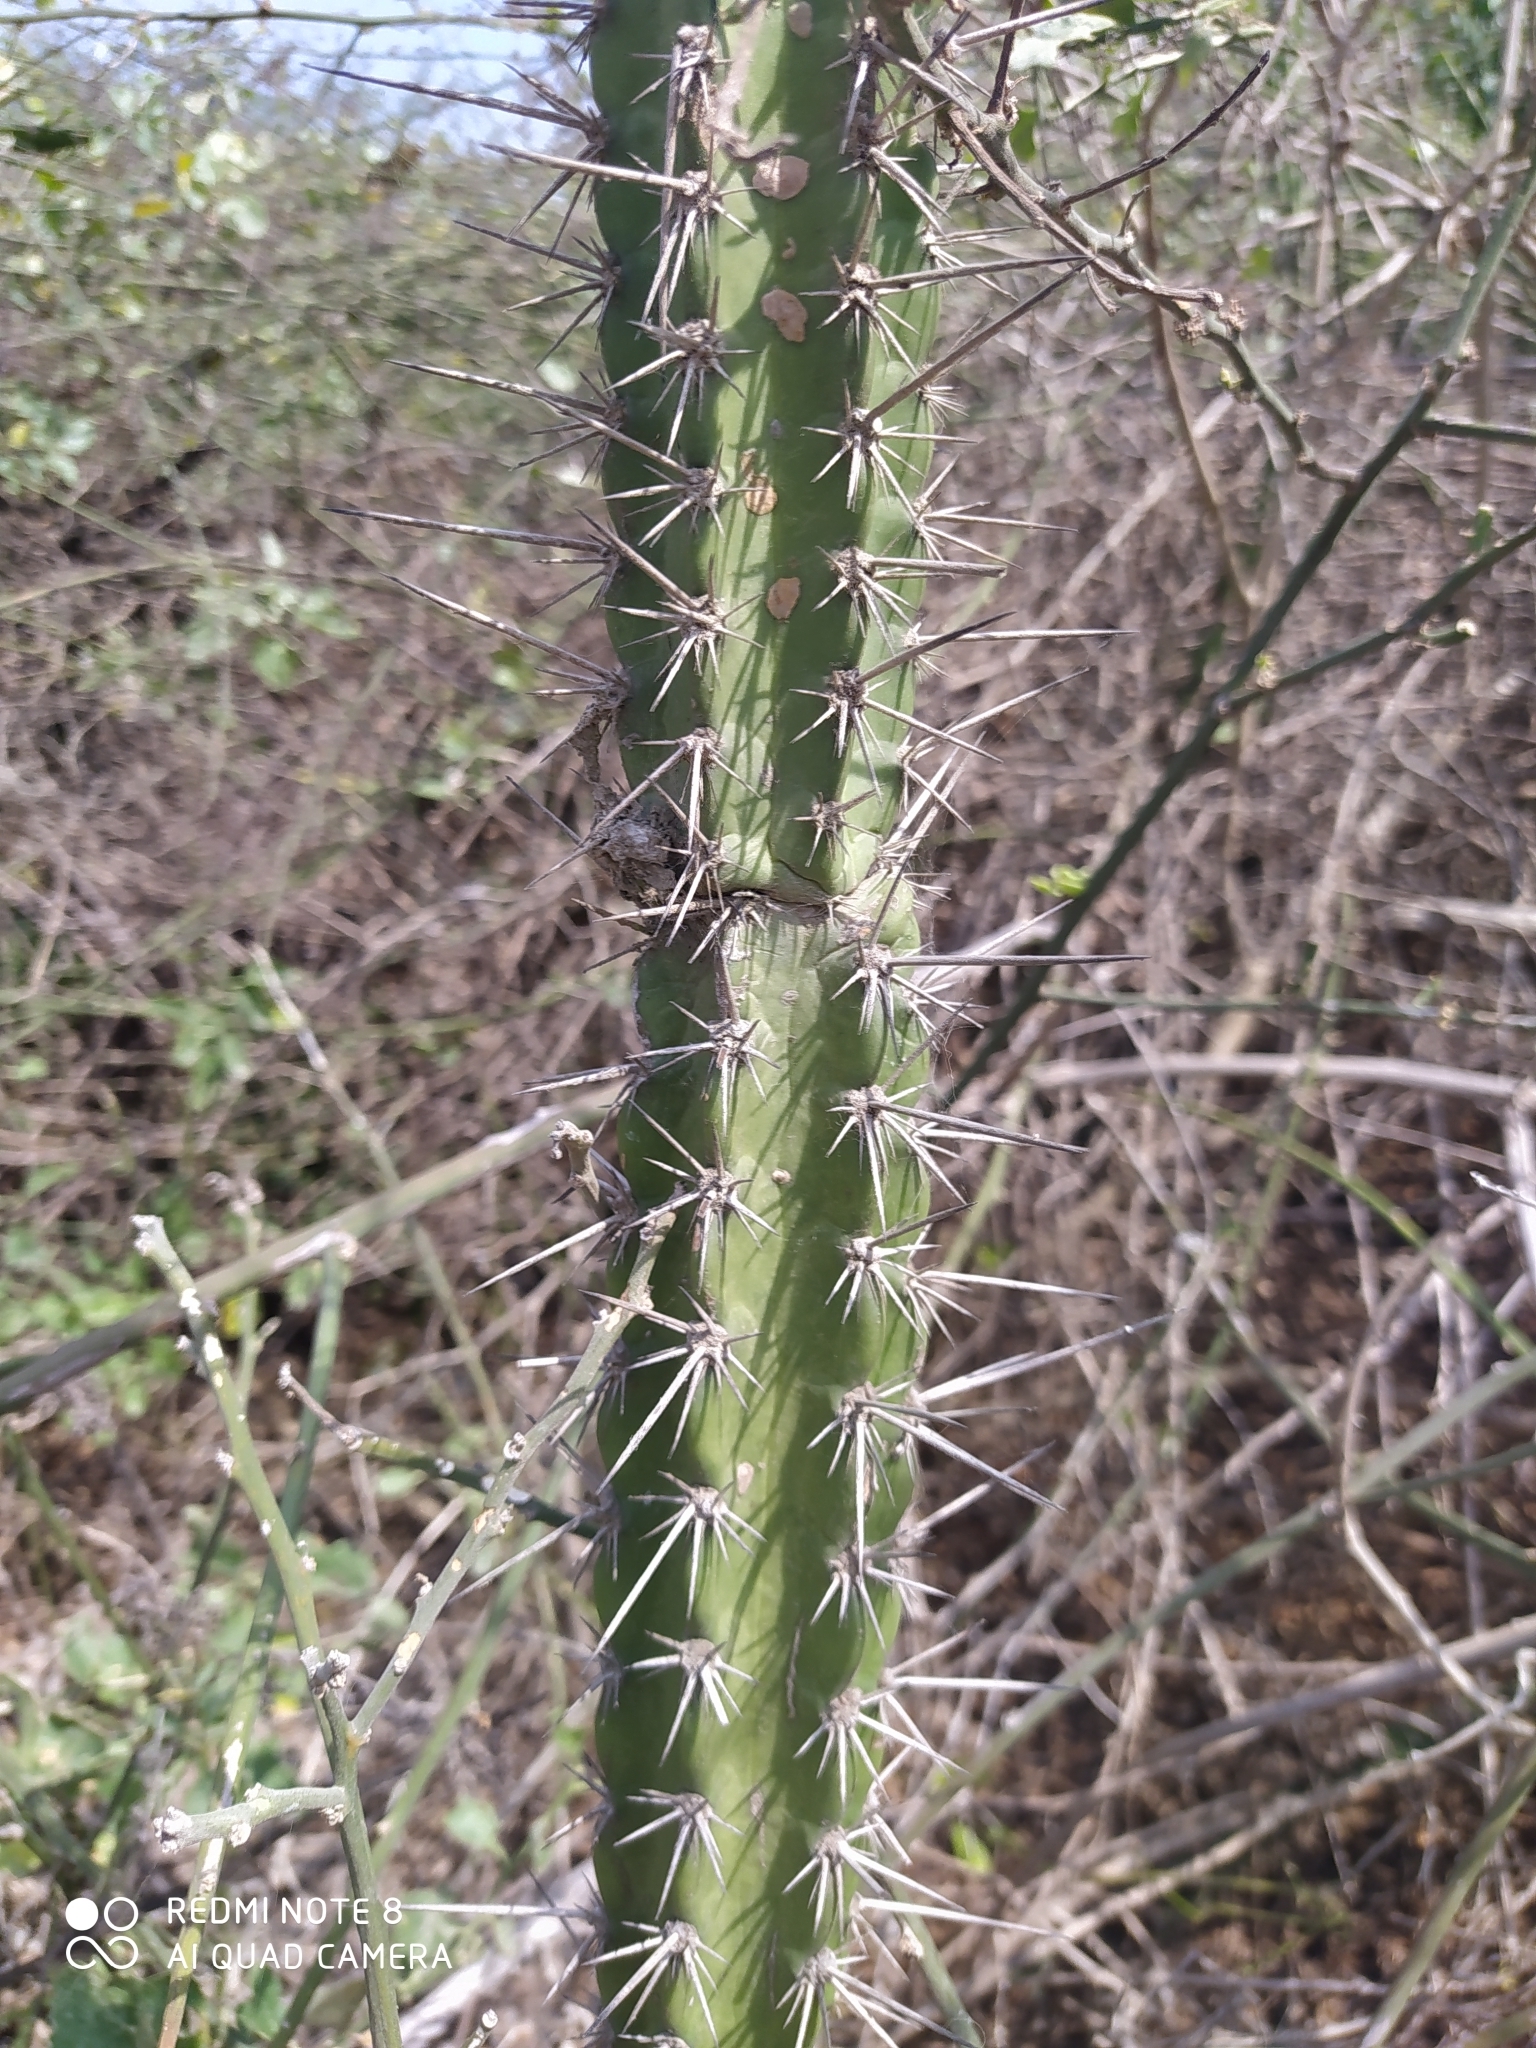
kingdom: Plantae
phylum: Tracheophyta
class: Magnoliopsida
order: Caryophyllales
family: Cactaceae
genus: Praecereus
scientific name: Praecereus euchlorus
